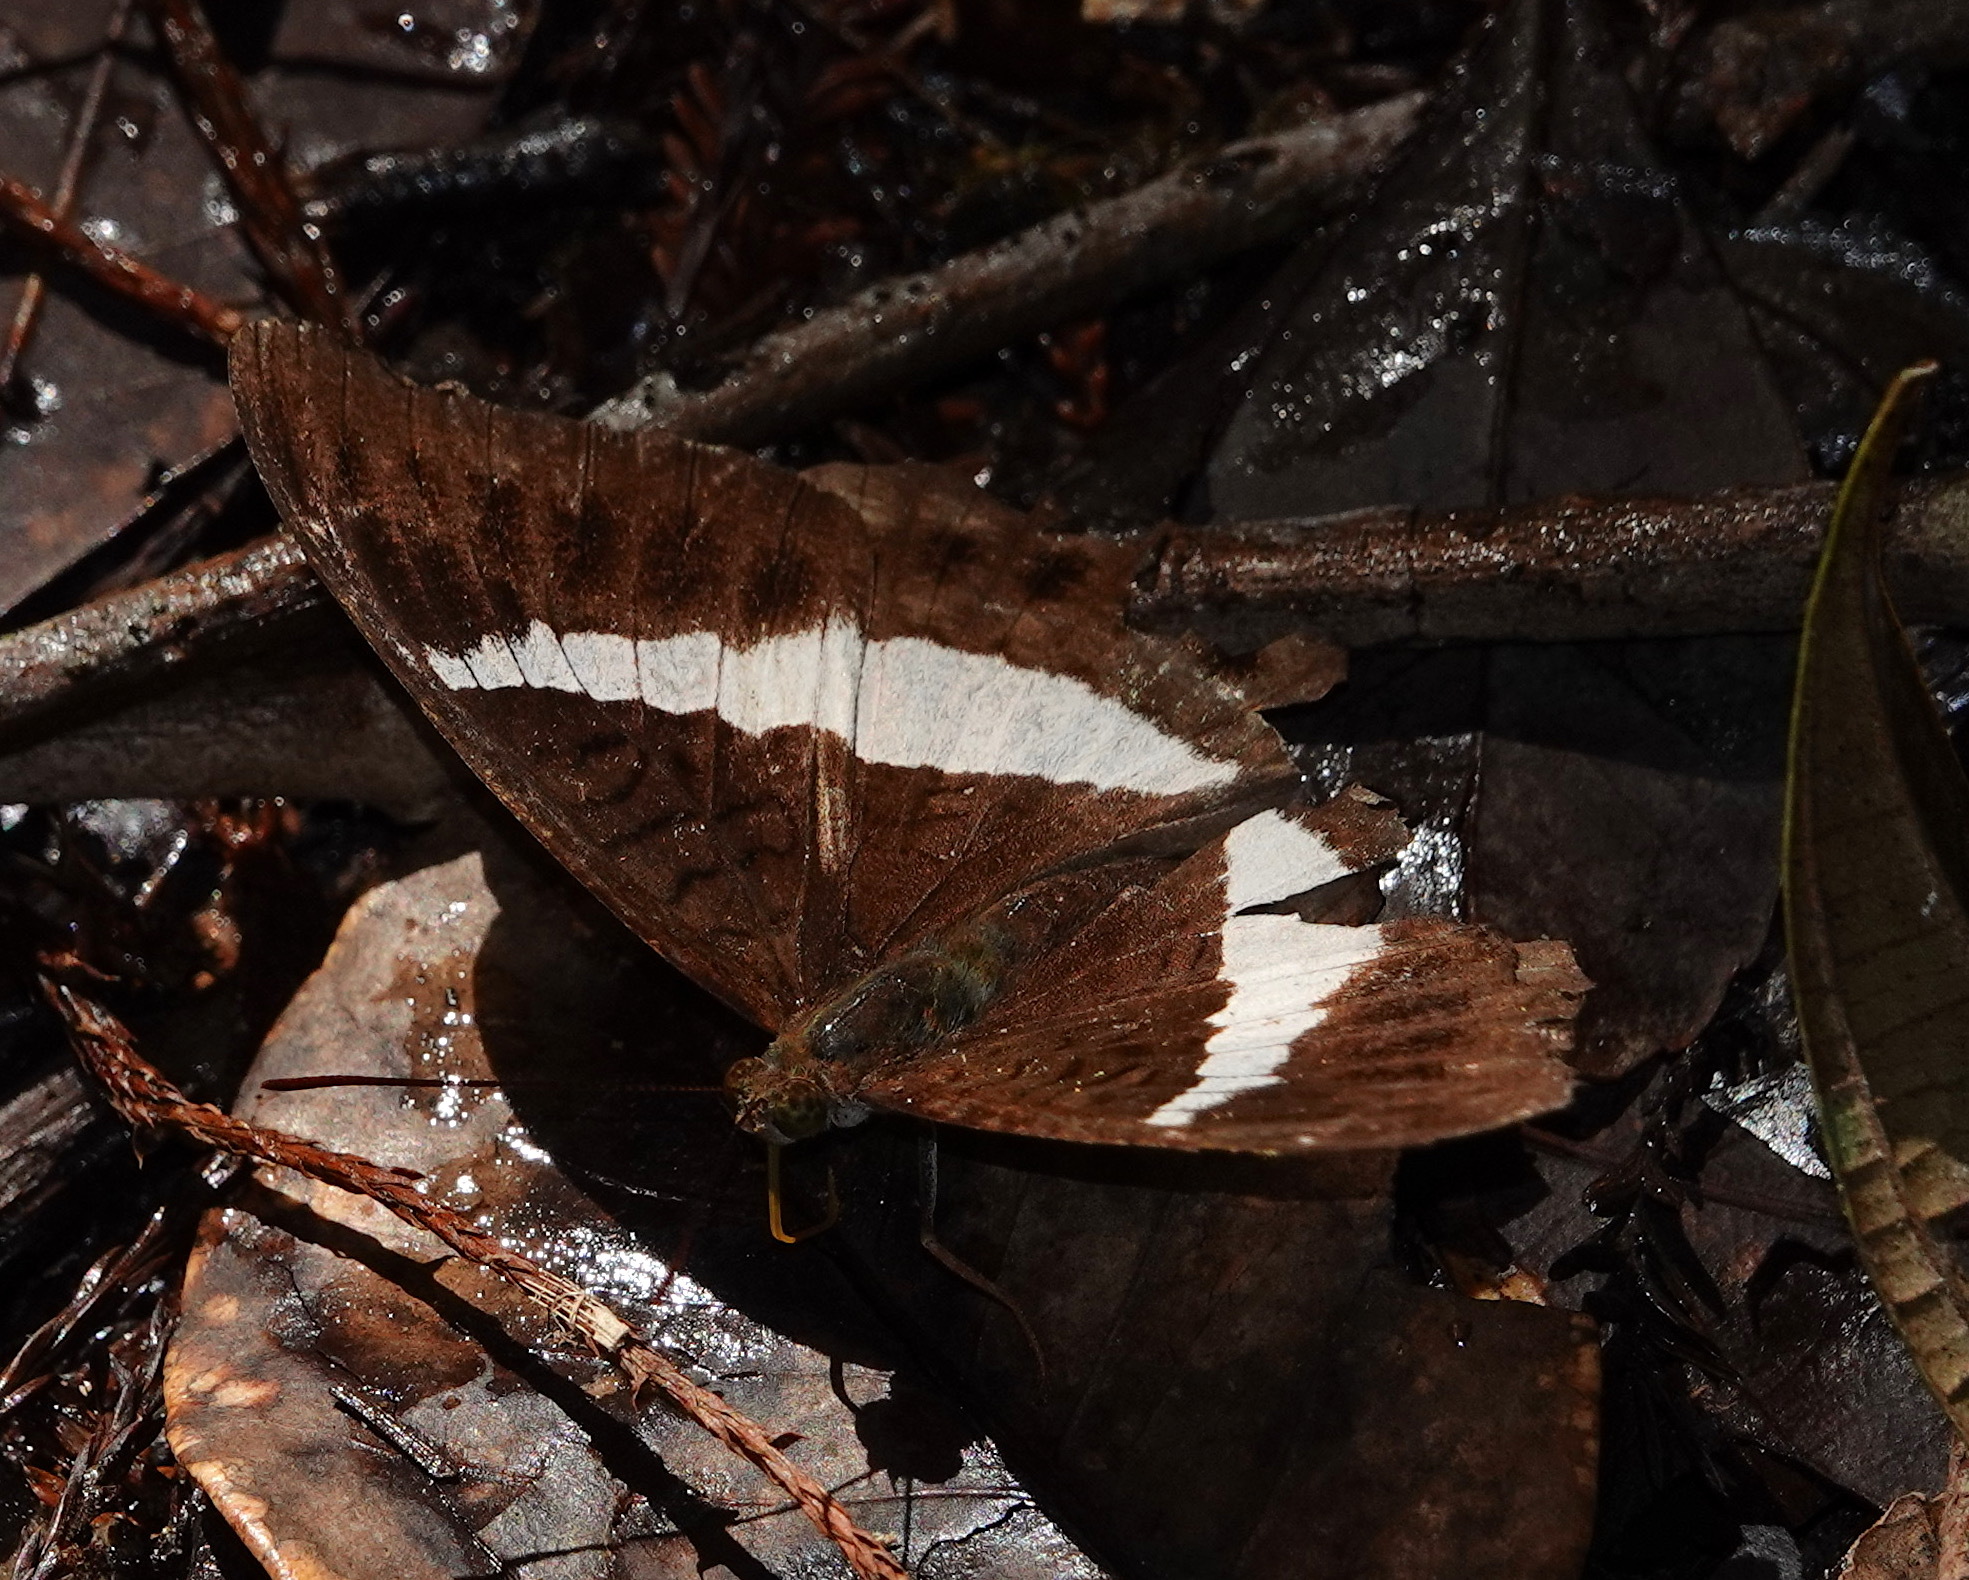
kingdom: Animalia
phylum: Arthropoda
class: Insecta
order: Lepidoptera
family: Nymphalidae
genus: Tanaecia
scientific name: Tanaecia amisa
